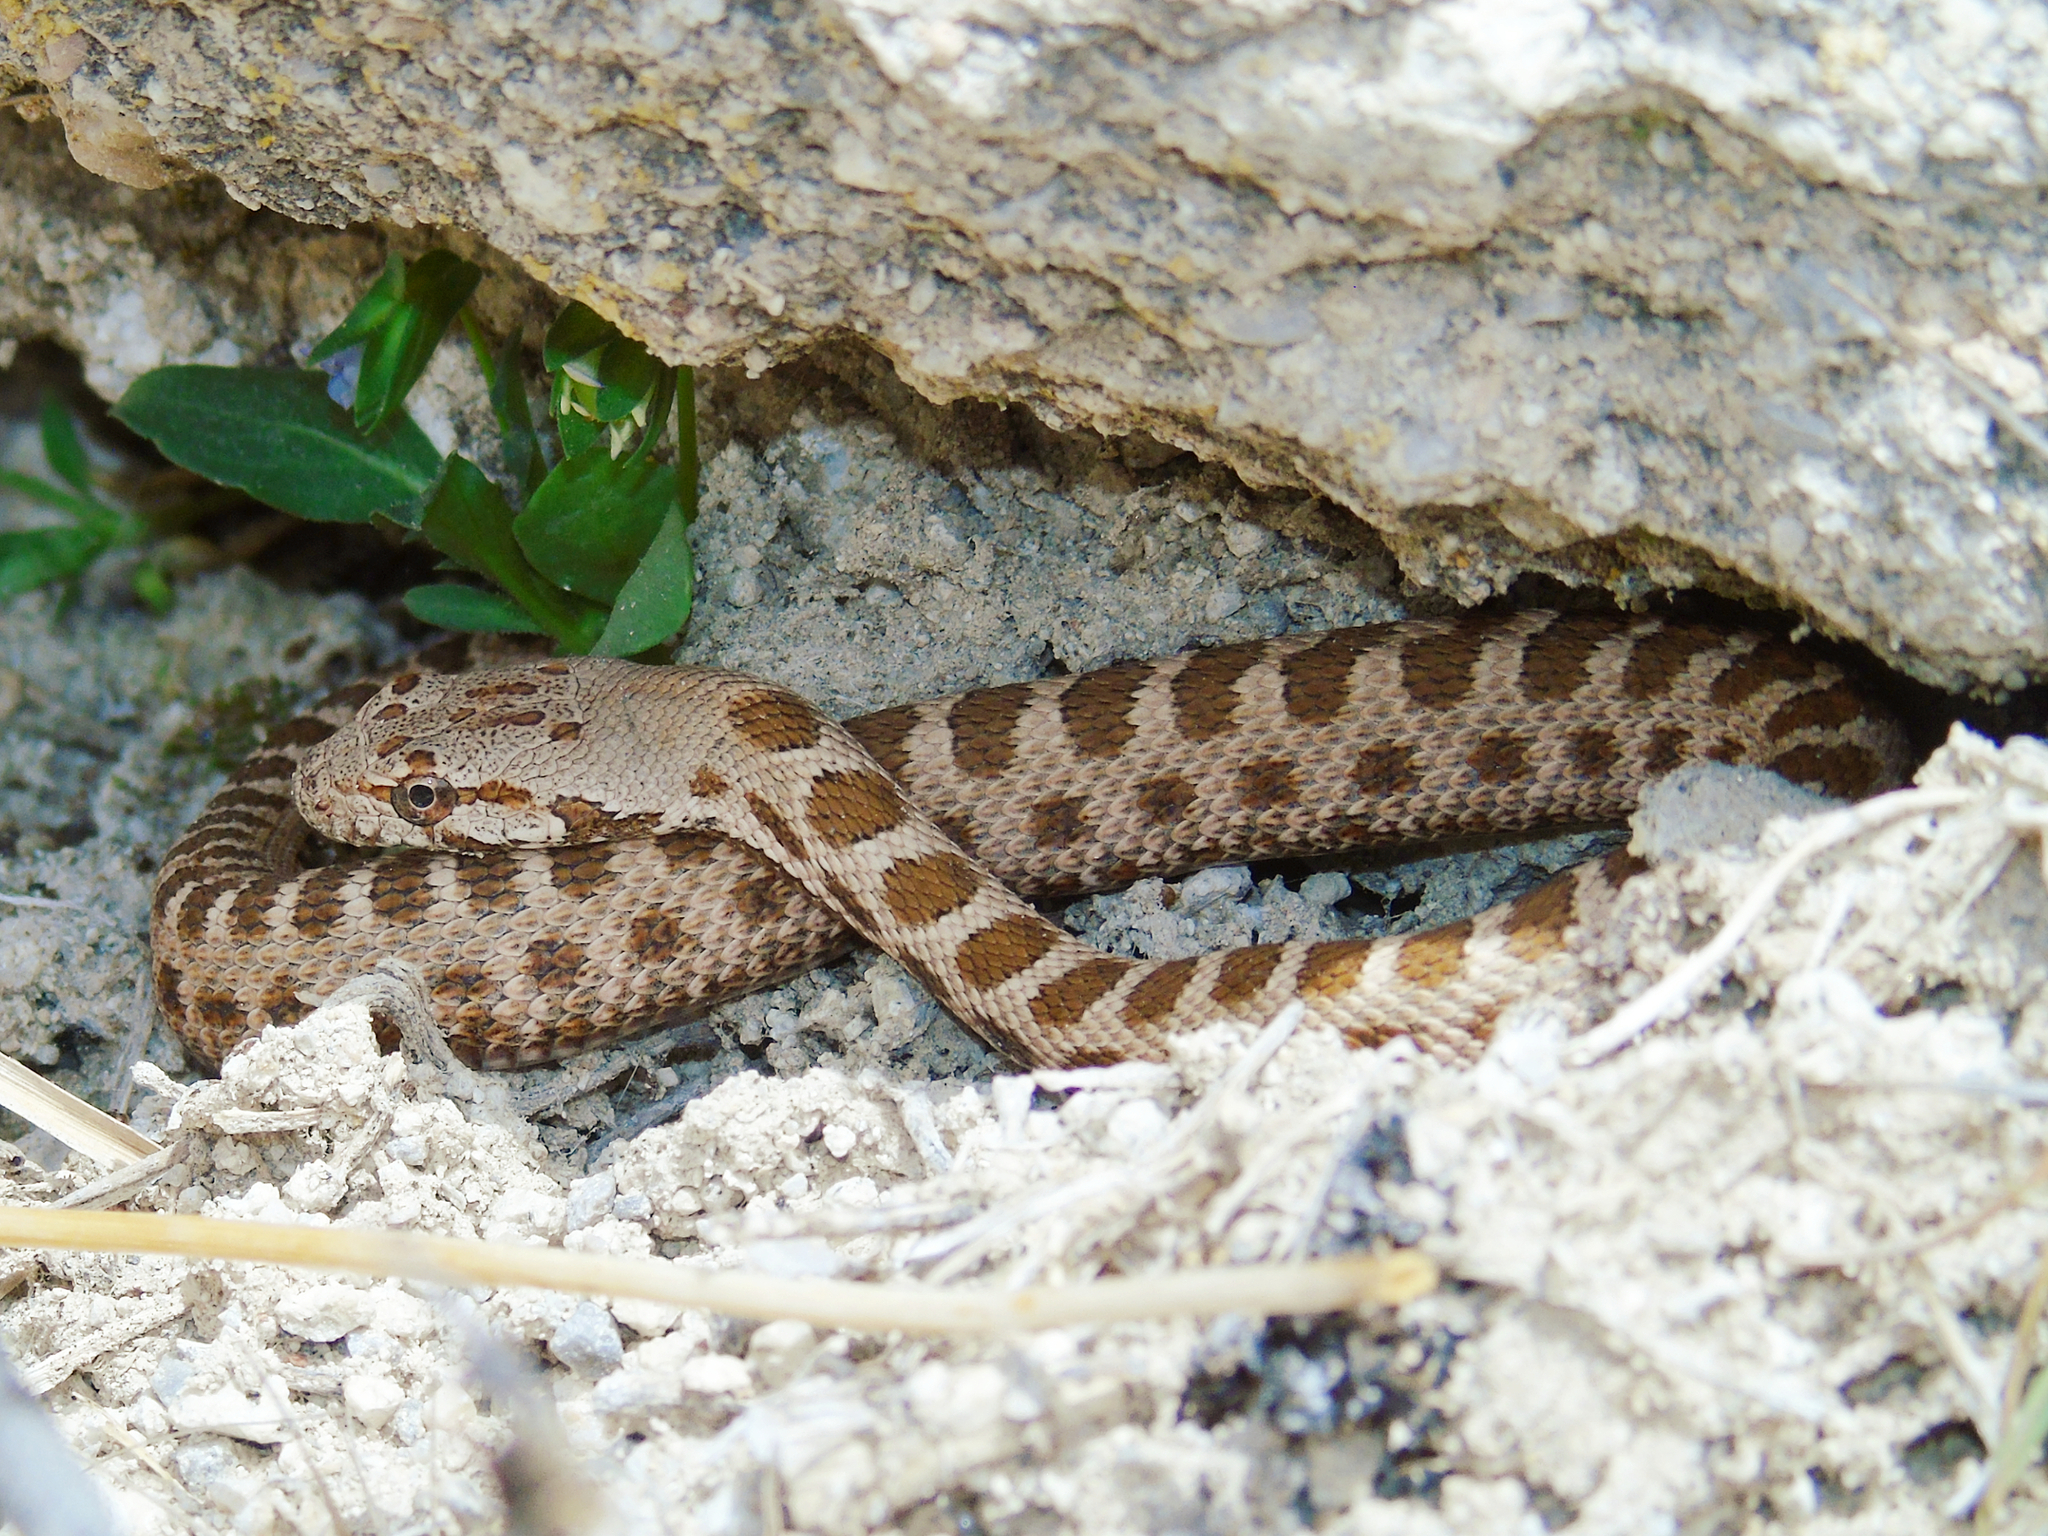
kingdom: Animalia
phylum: Chordata
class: Squamata
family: Colubridae
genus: Hemorrhois
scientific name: Hemorrhois nummifer
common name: Asian racer
